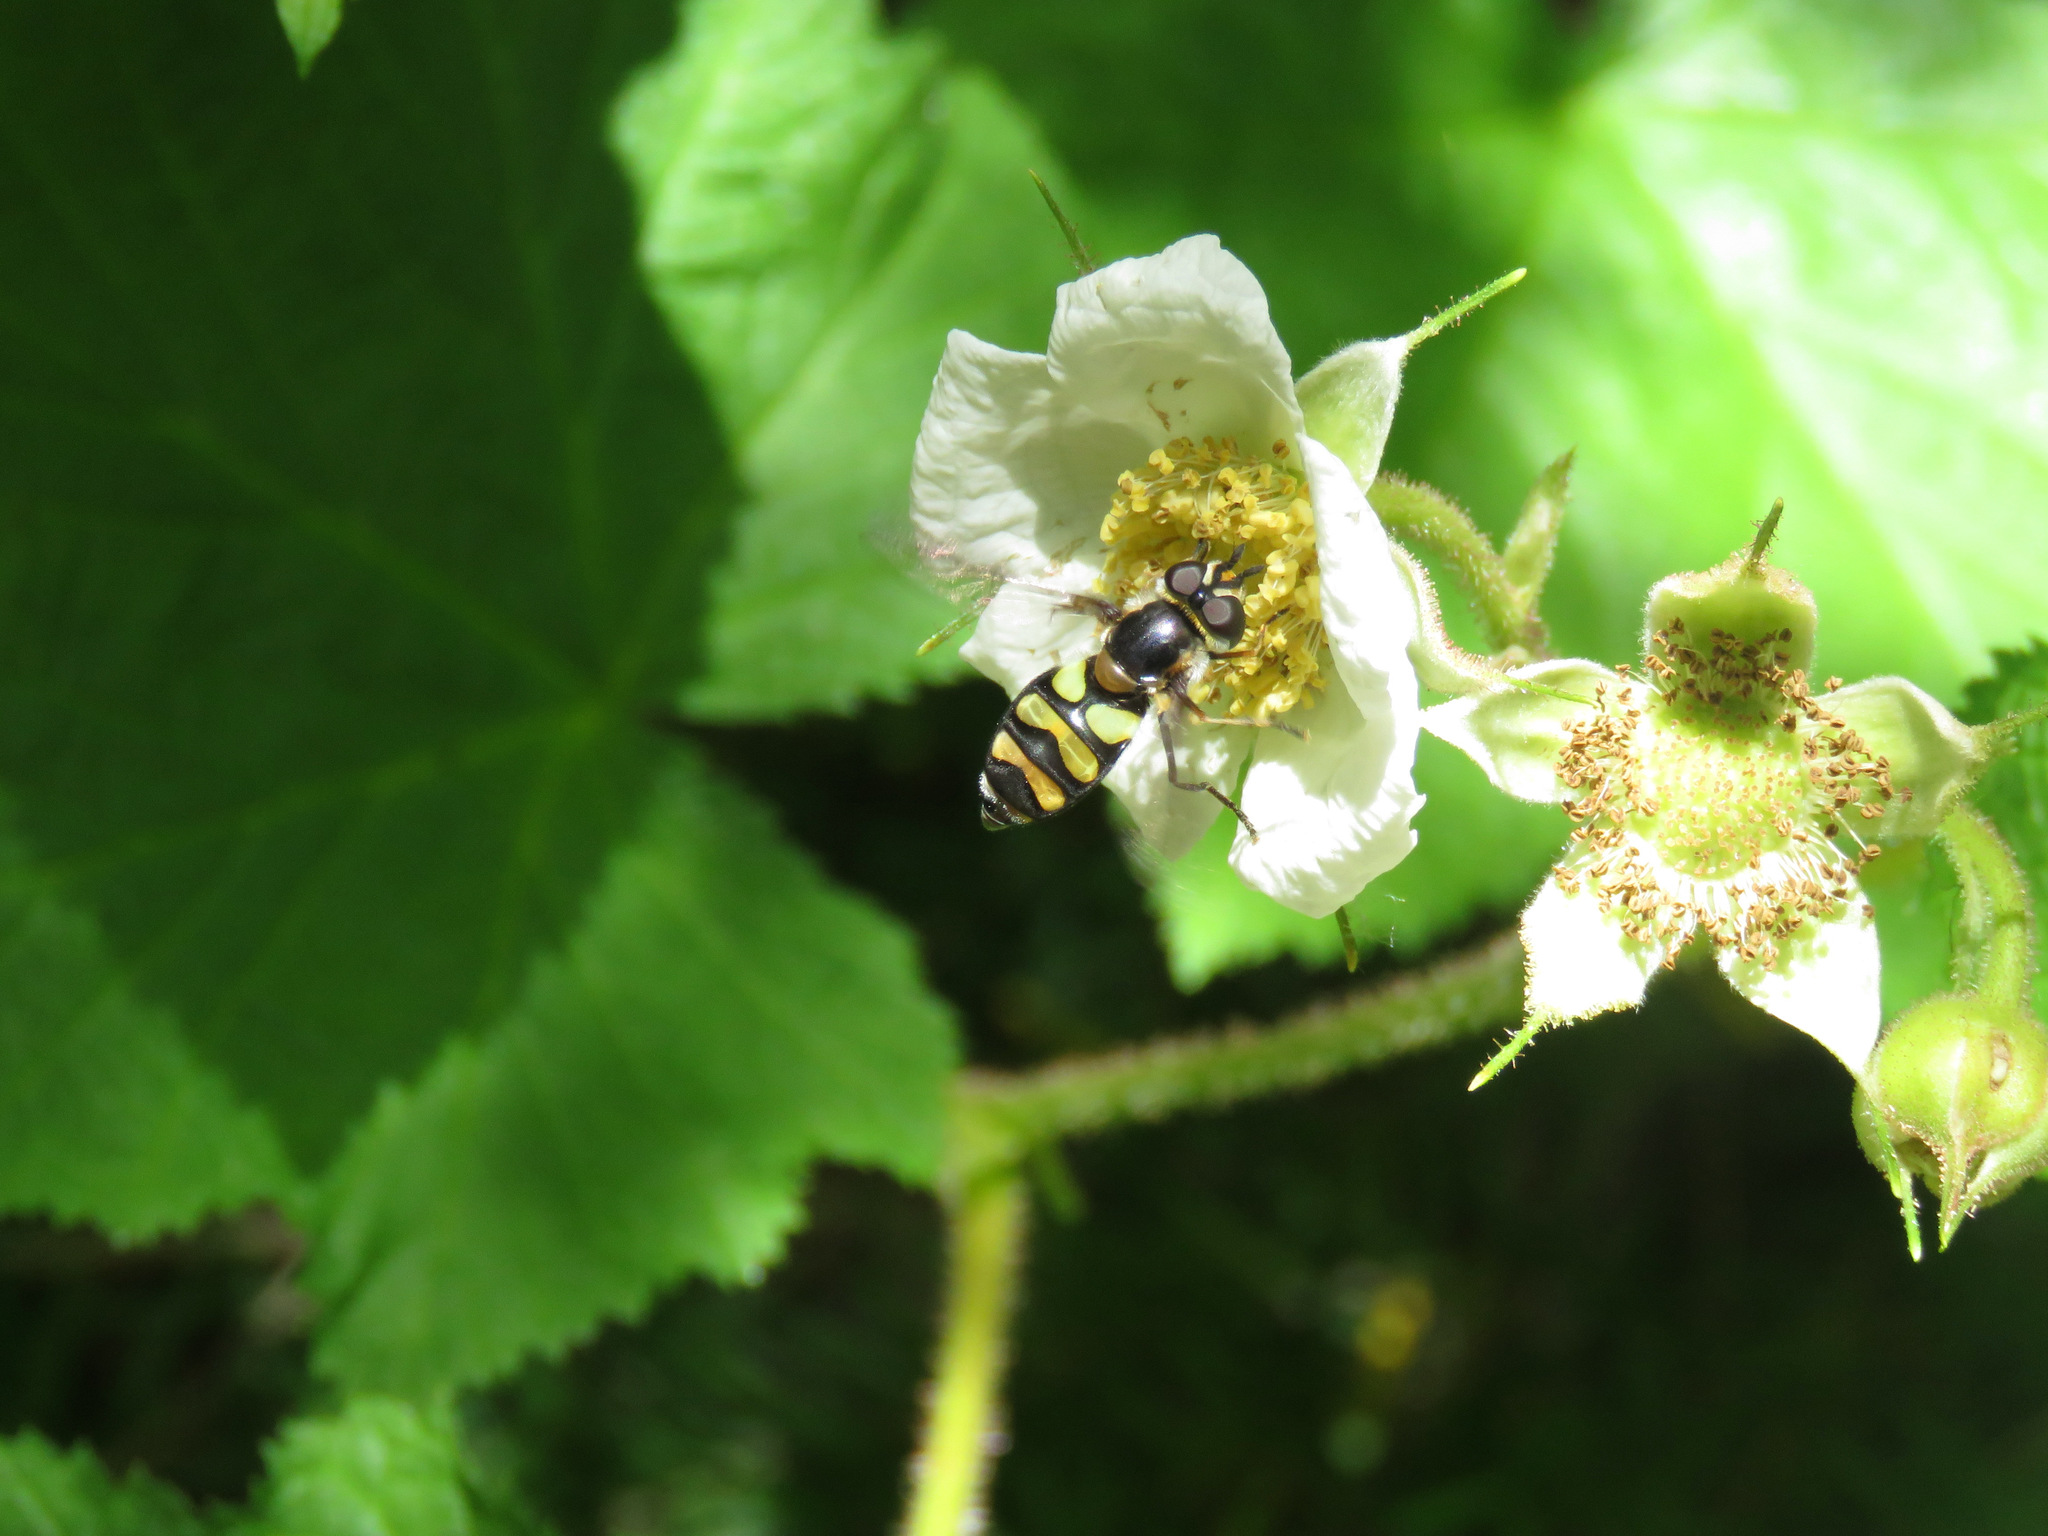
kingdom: Animalia
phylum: Arthropoda
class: Insecta
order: Diptera
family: Syrphidae
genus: Didea
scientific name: Didea fuscipes
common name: Undivided lucent
